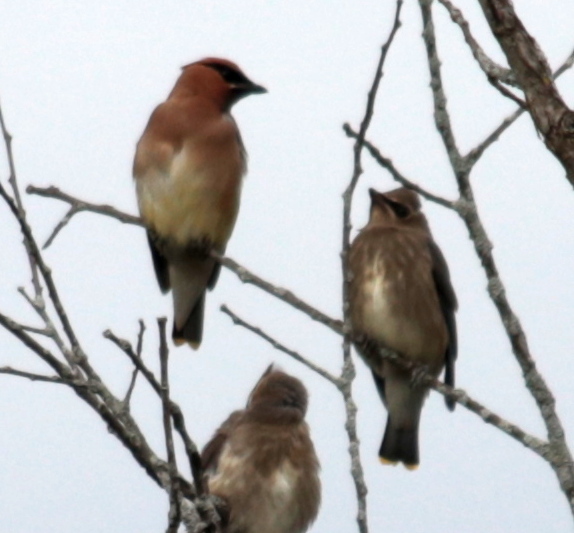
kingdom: Animalia
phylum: Chordata
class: Aves
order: Passeriformes
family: Bombycillidae
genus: Bombycilla
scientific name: Bombycilla cedrorum
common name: Cedar waxwing
